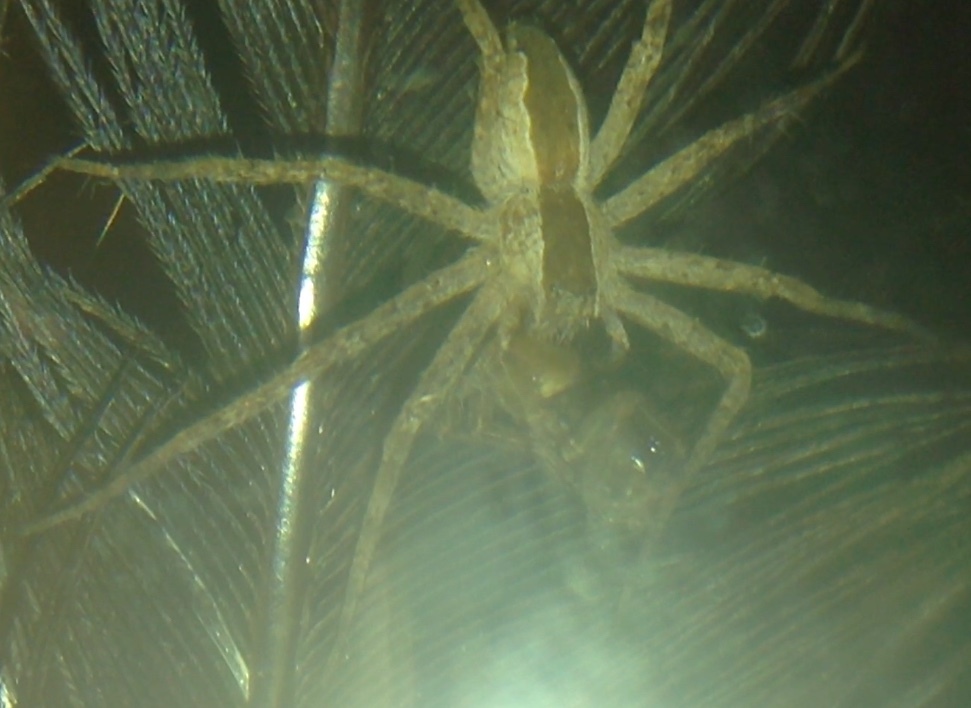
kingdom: Animalia
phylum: Arthropoda
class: Arachnida
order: Araneae
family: Pisauridae
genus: Pisaurina
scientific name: Pisaurina mira
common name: American nursery web spider
